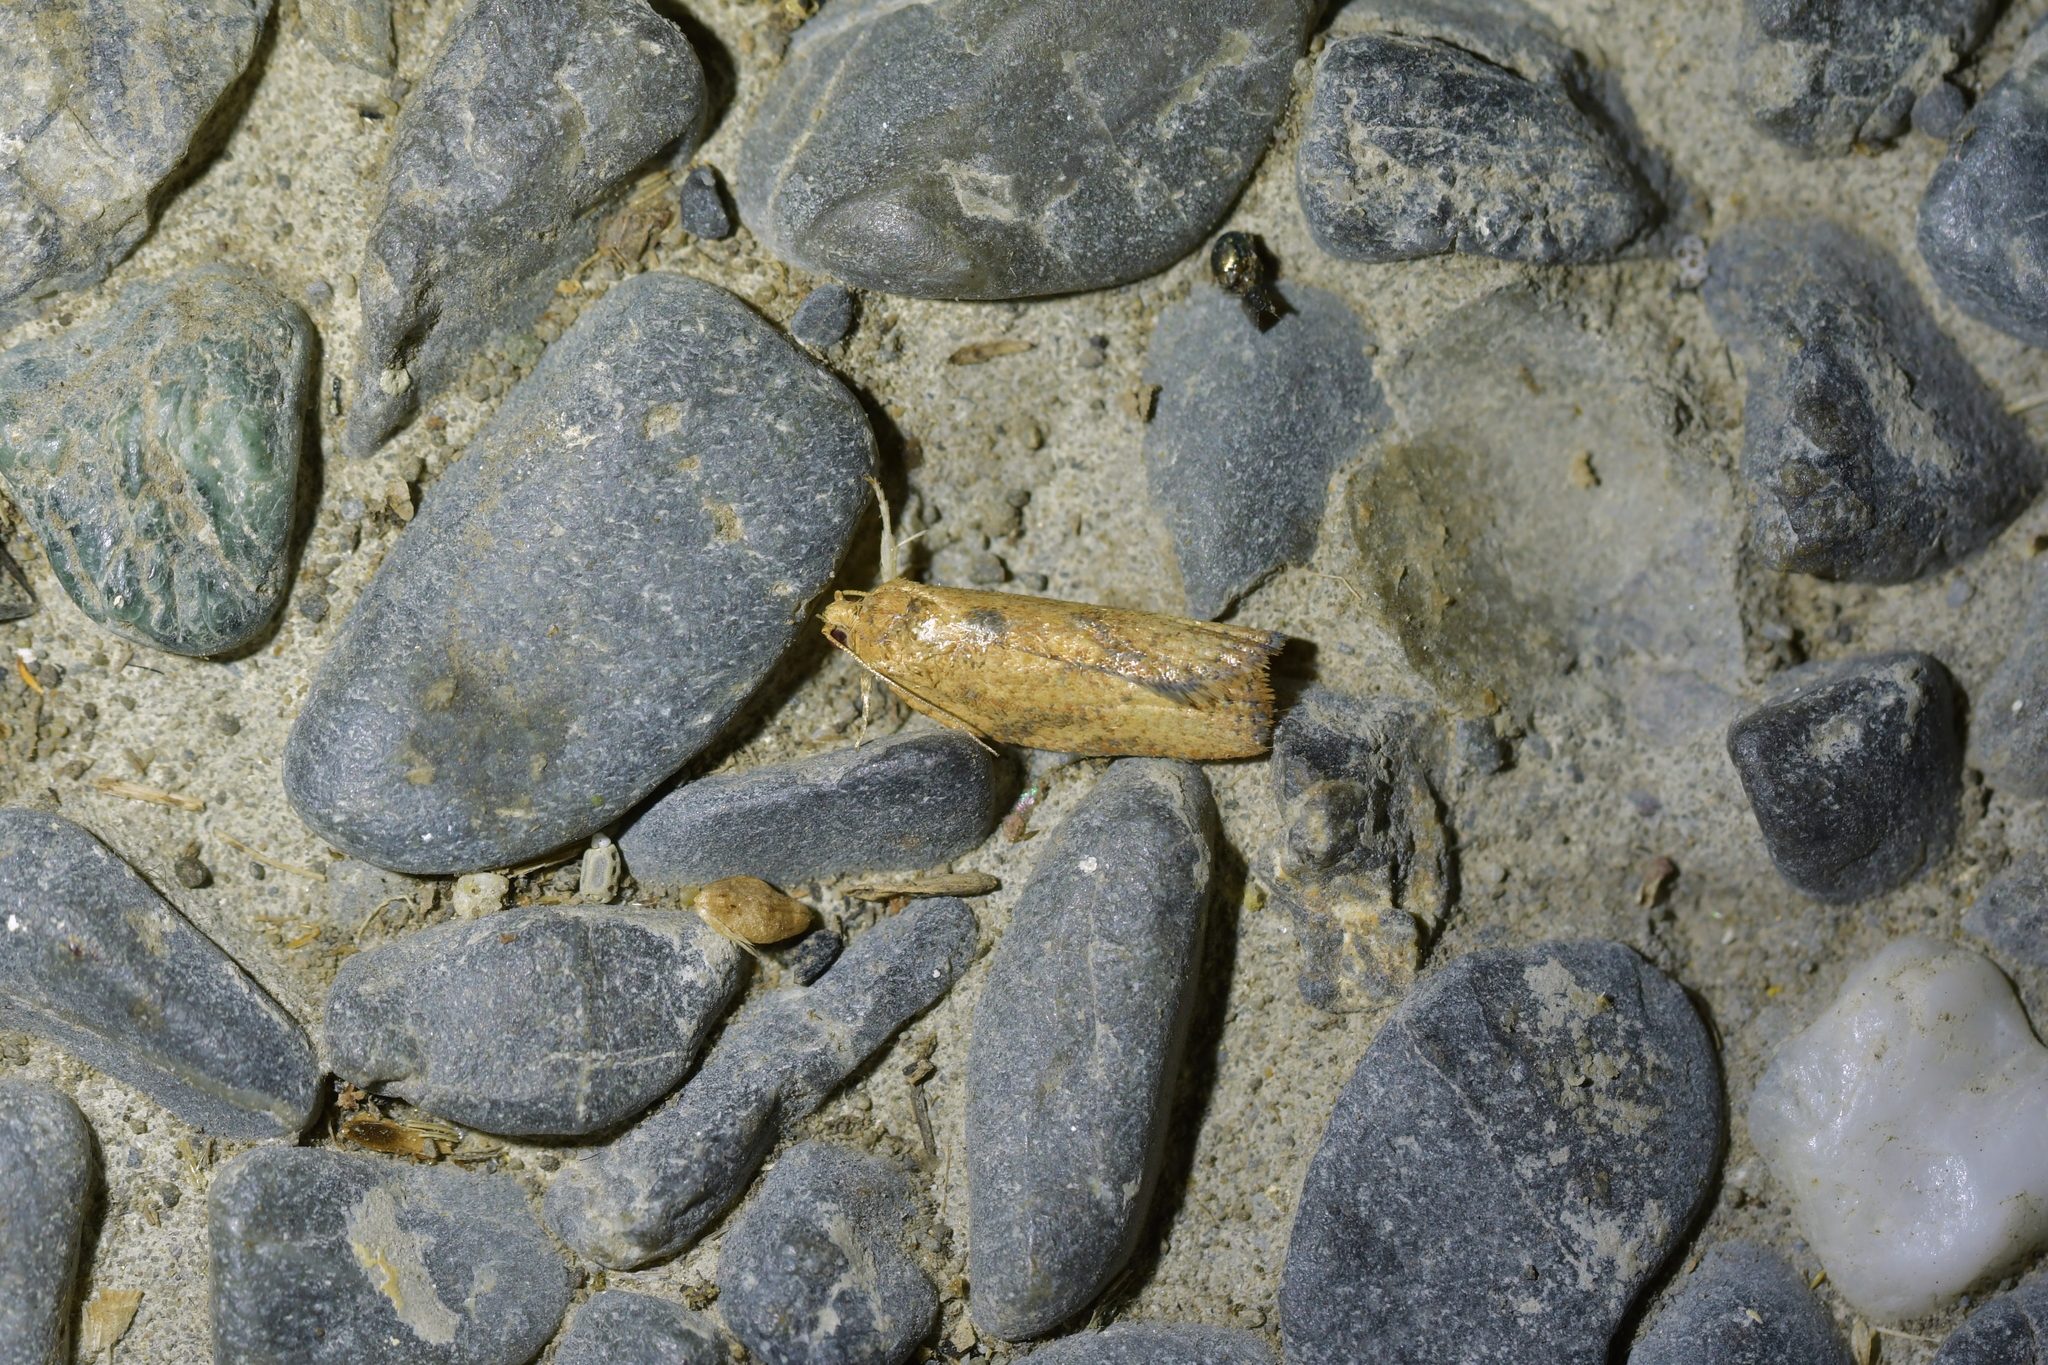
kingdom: Animalia
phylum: Arthropoda
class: Insecta
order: Lepidoptera
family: Tortricidae
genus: Epiphyas
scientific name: Epiphyas postvittana
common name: Light brown apple moth
